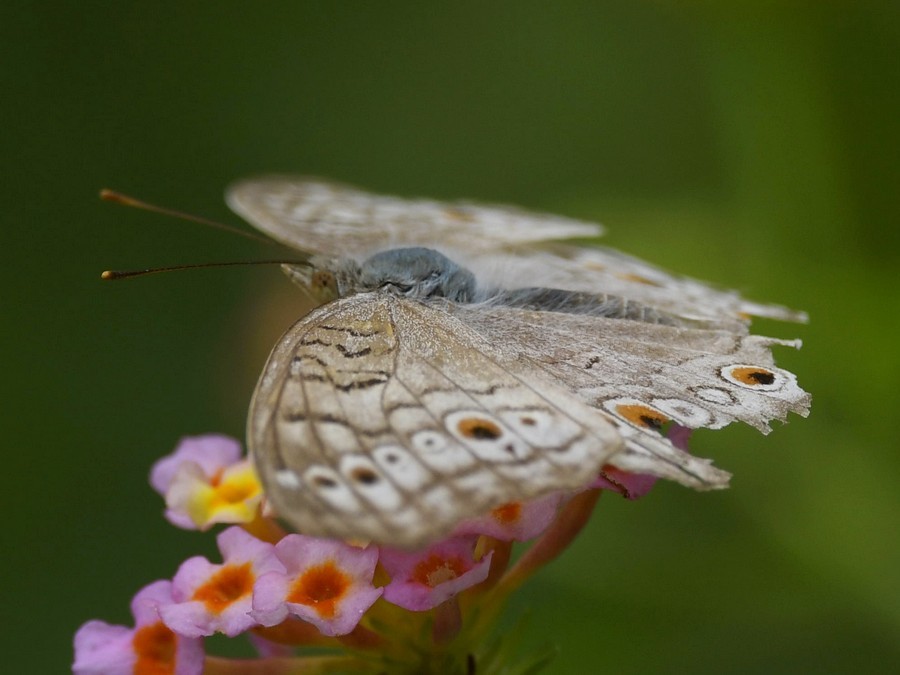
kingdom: Animalia
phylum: Arthropoda
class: Insecta
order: Lepidoptera
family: Nymphalidae
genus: Junonia
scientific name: Junonia atlites
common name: Grey pansy
